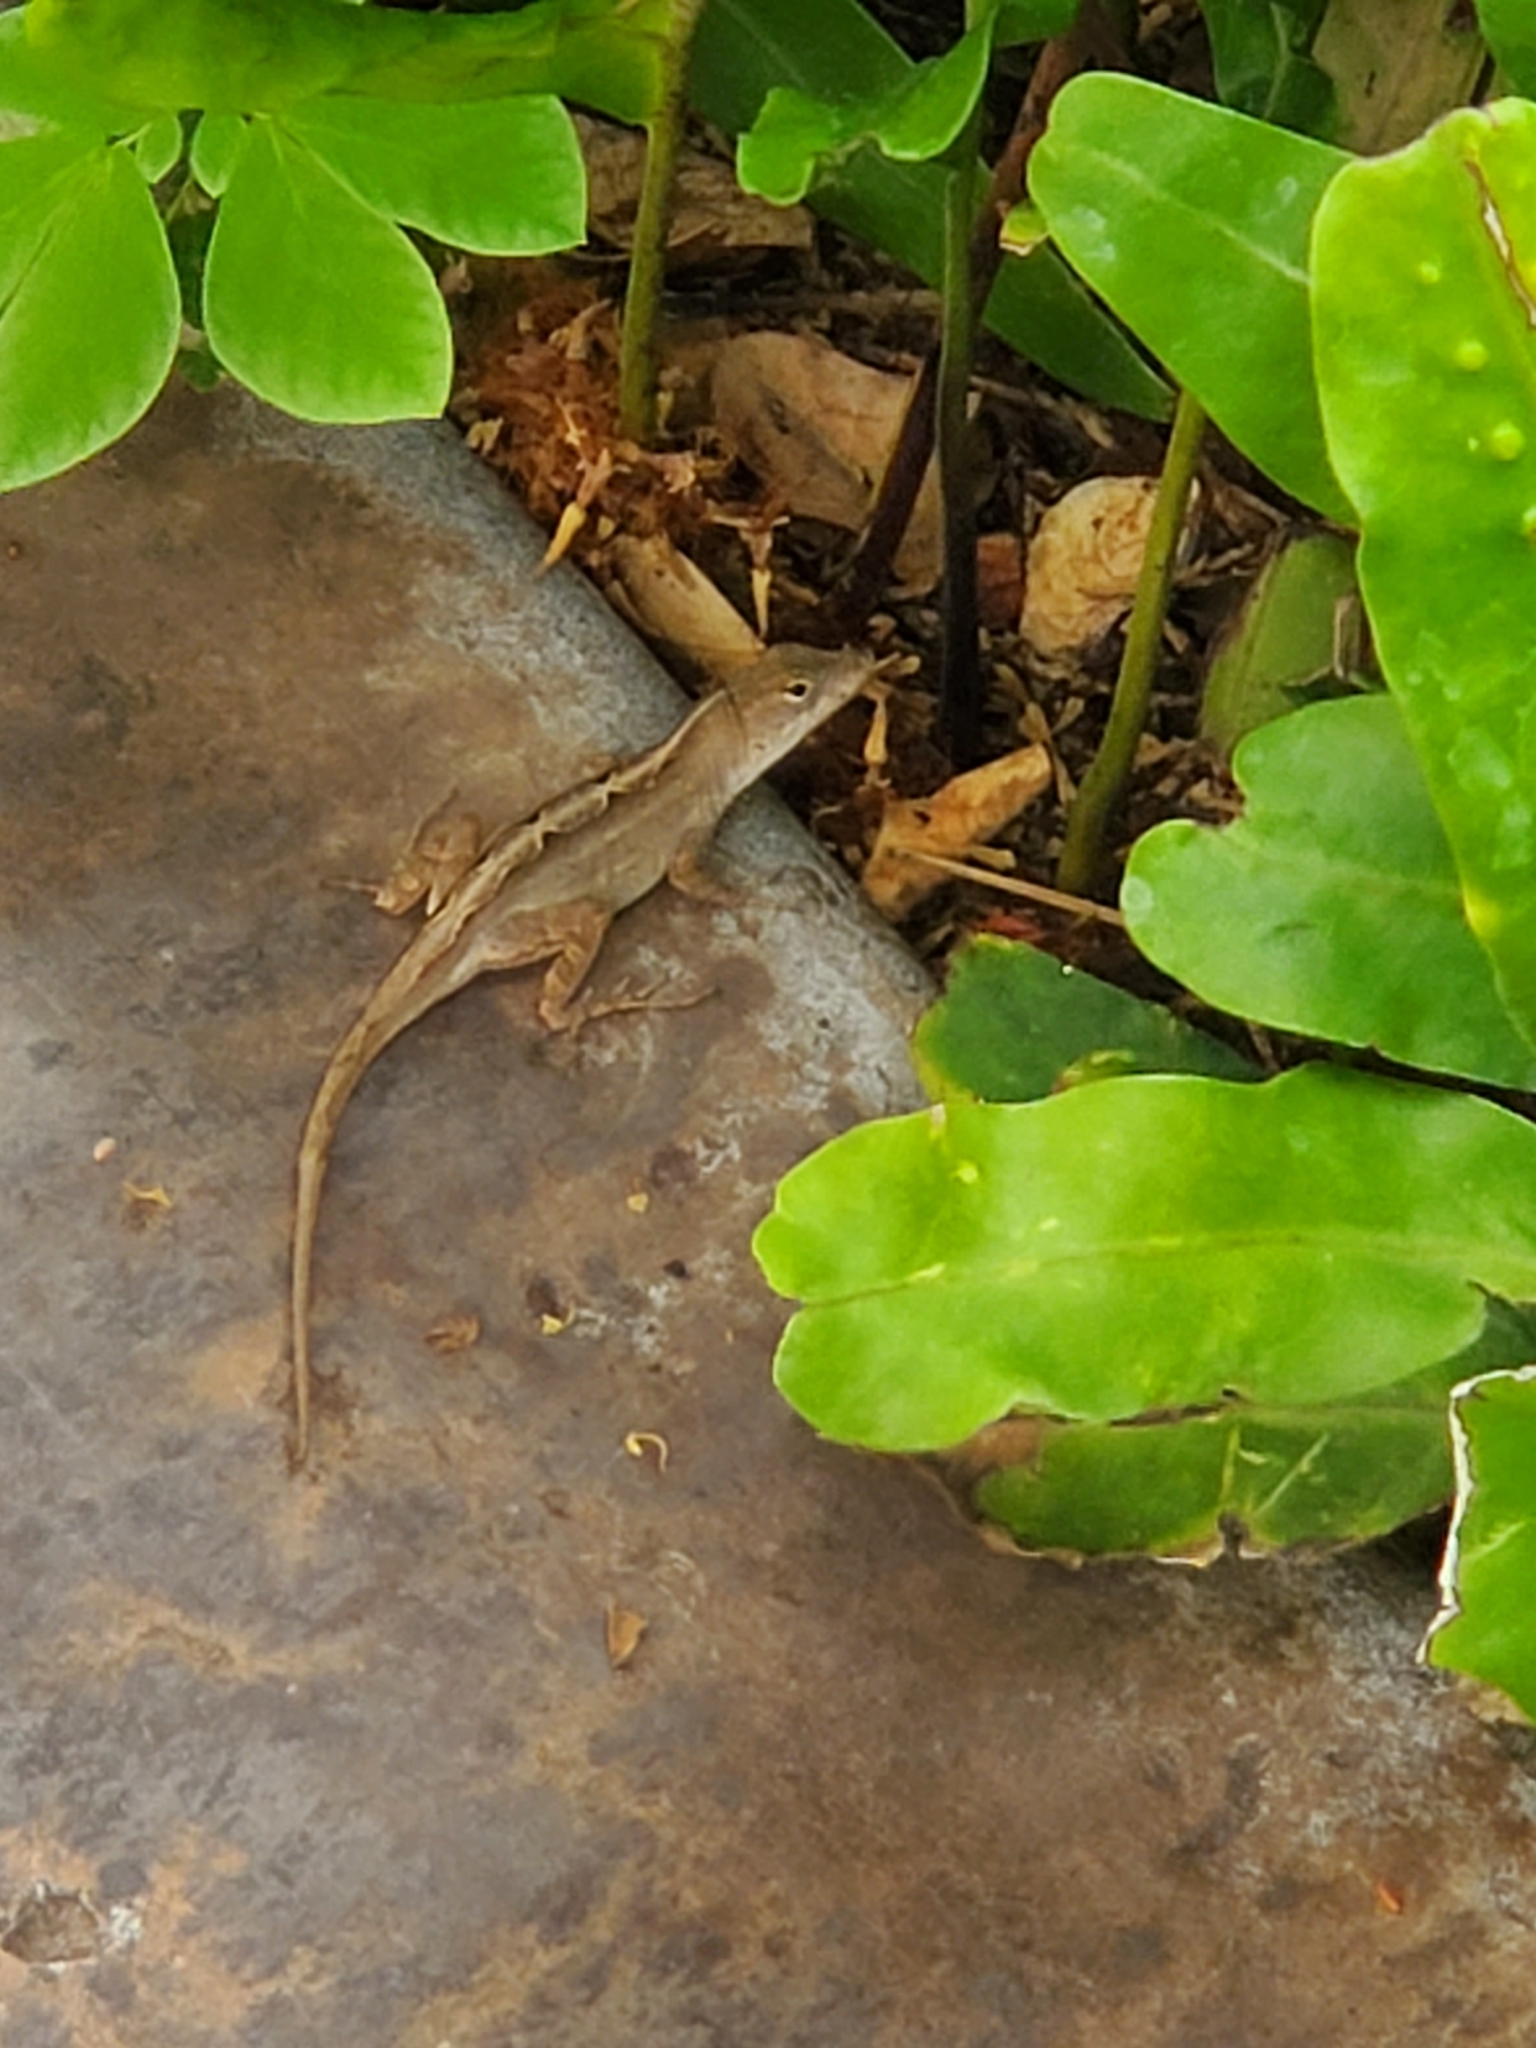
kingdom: Animalia
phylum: Chordata
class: Squamata
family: Dactyloidae
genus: Anolis
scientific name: Anolis sagrei
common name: Brown anole
